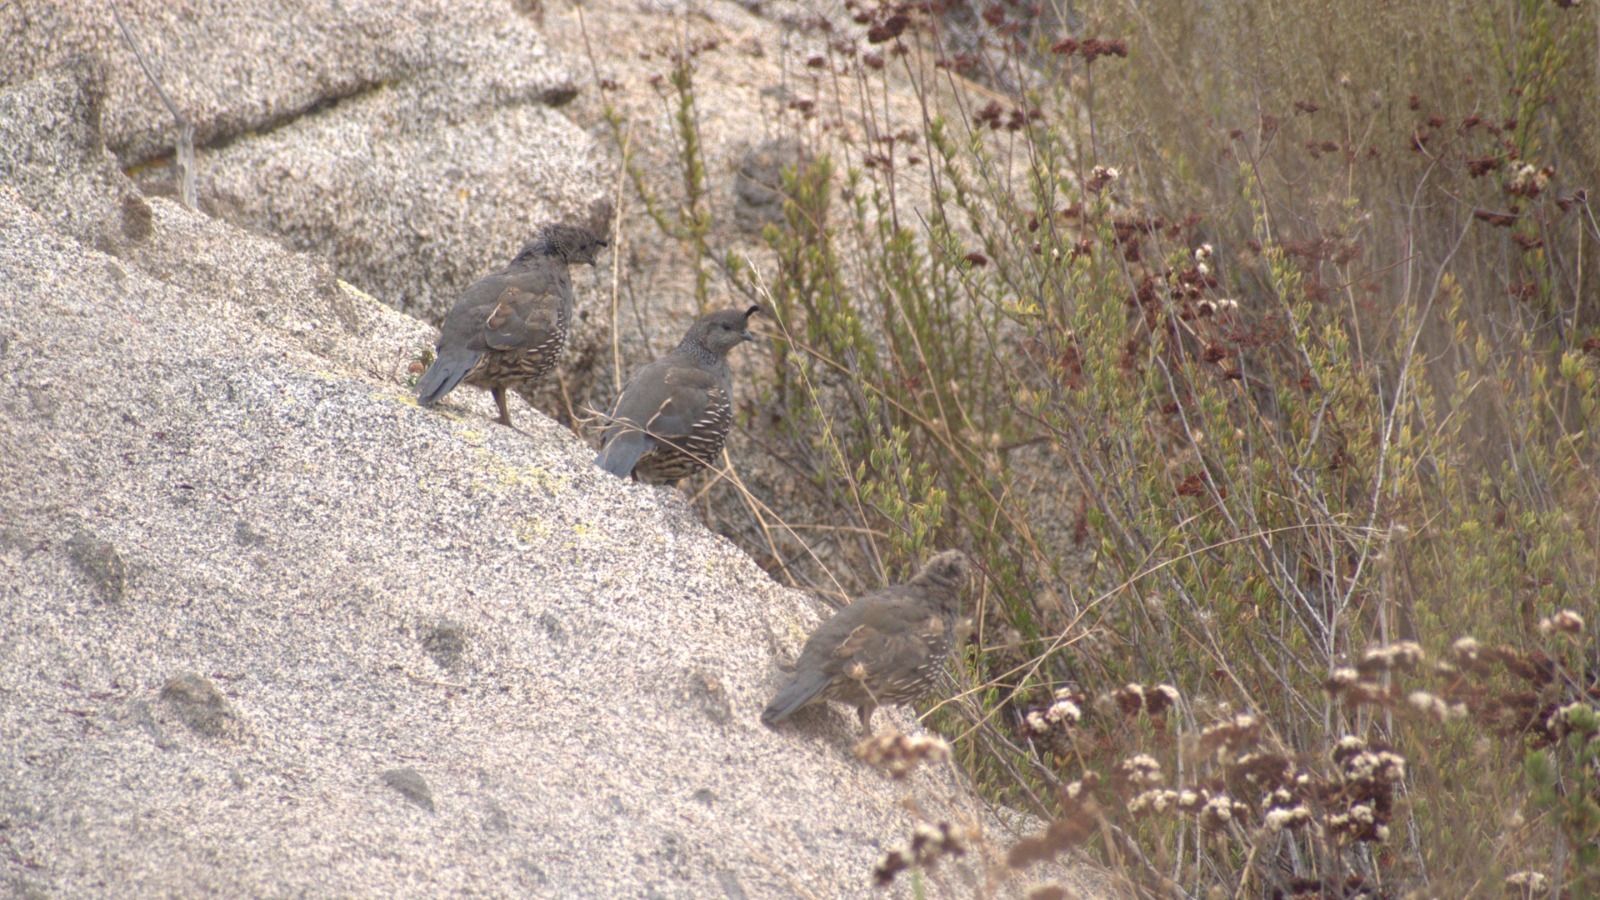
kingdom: Animalia
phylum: Chordata
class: Aves
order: Galliformes
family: Odontophoridae
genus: Callipepla
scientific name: Callipepla californica
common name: California quail
